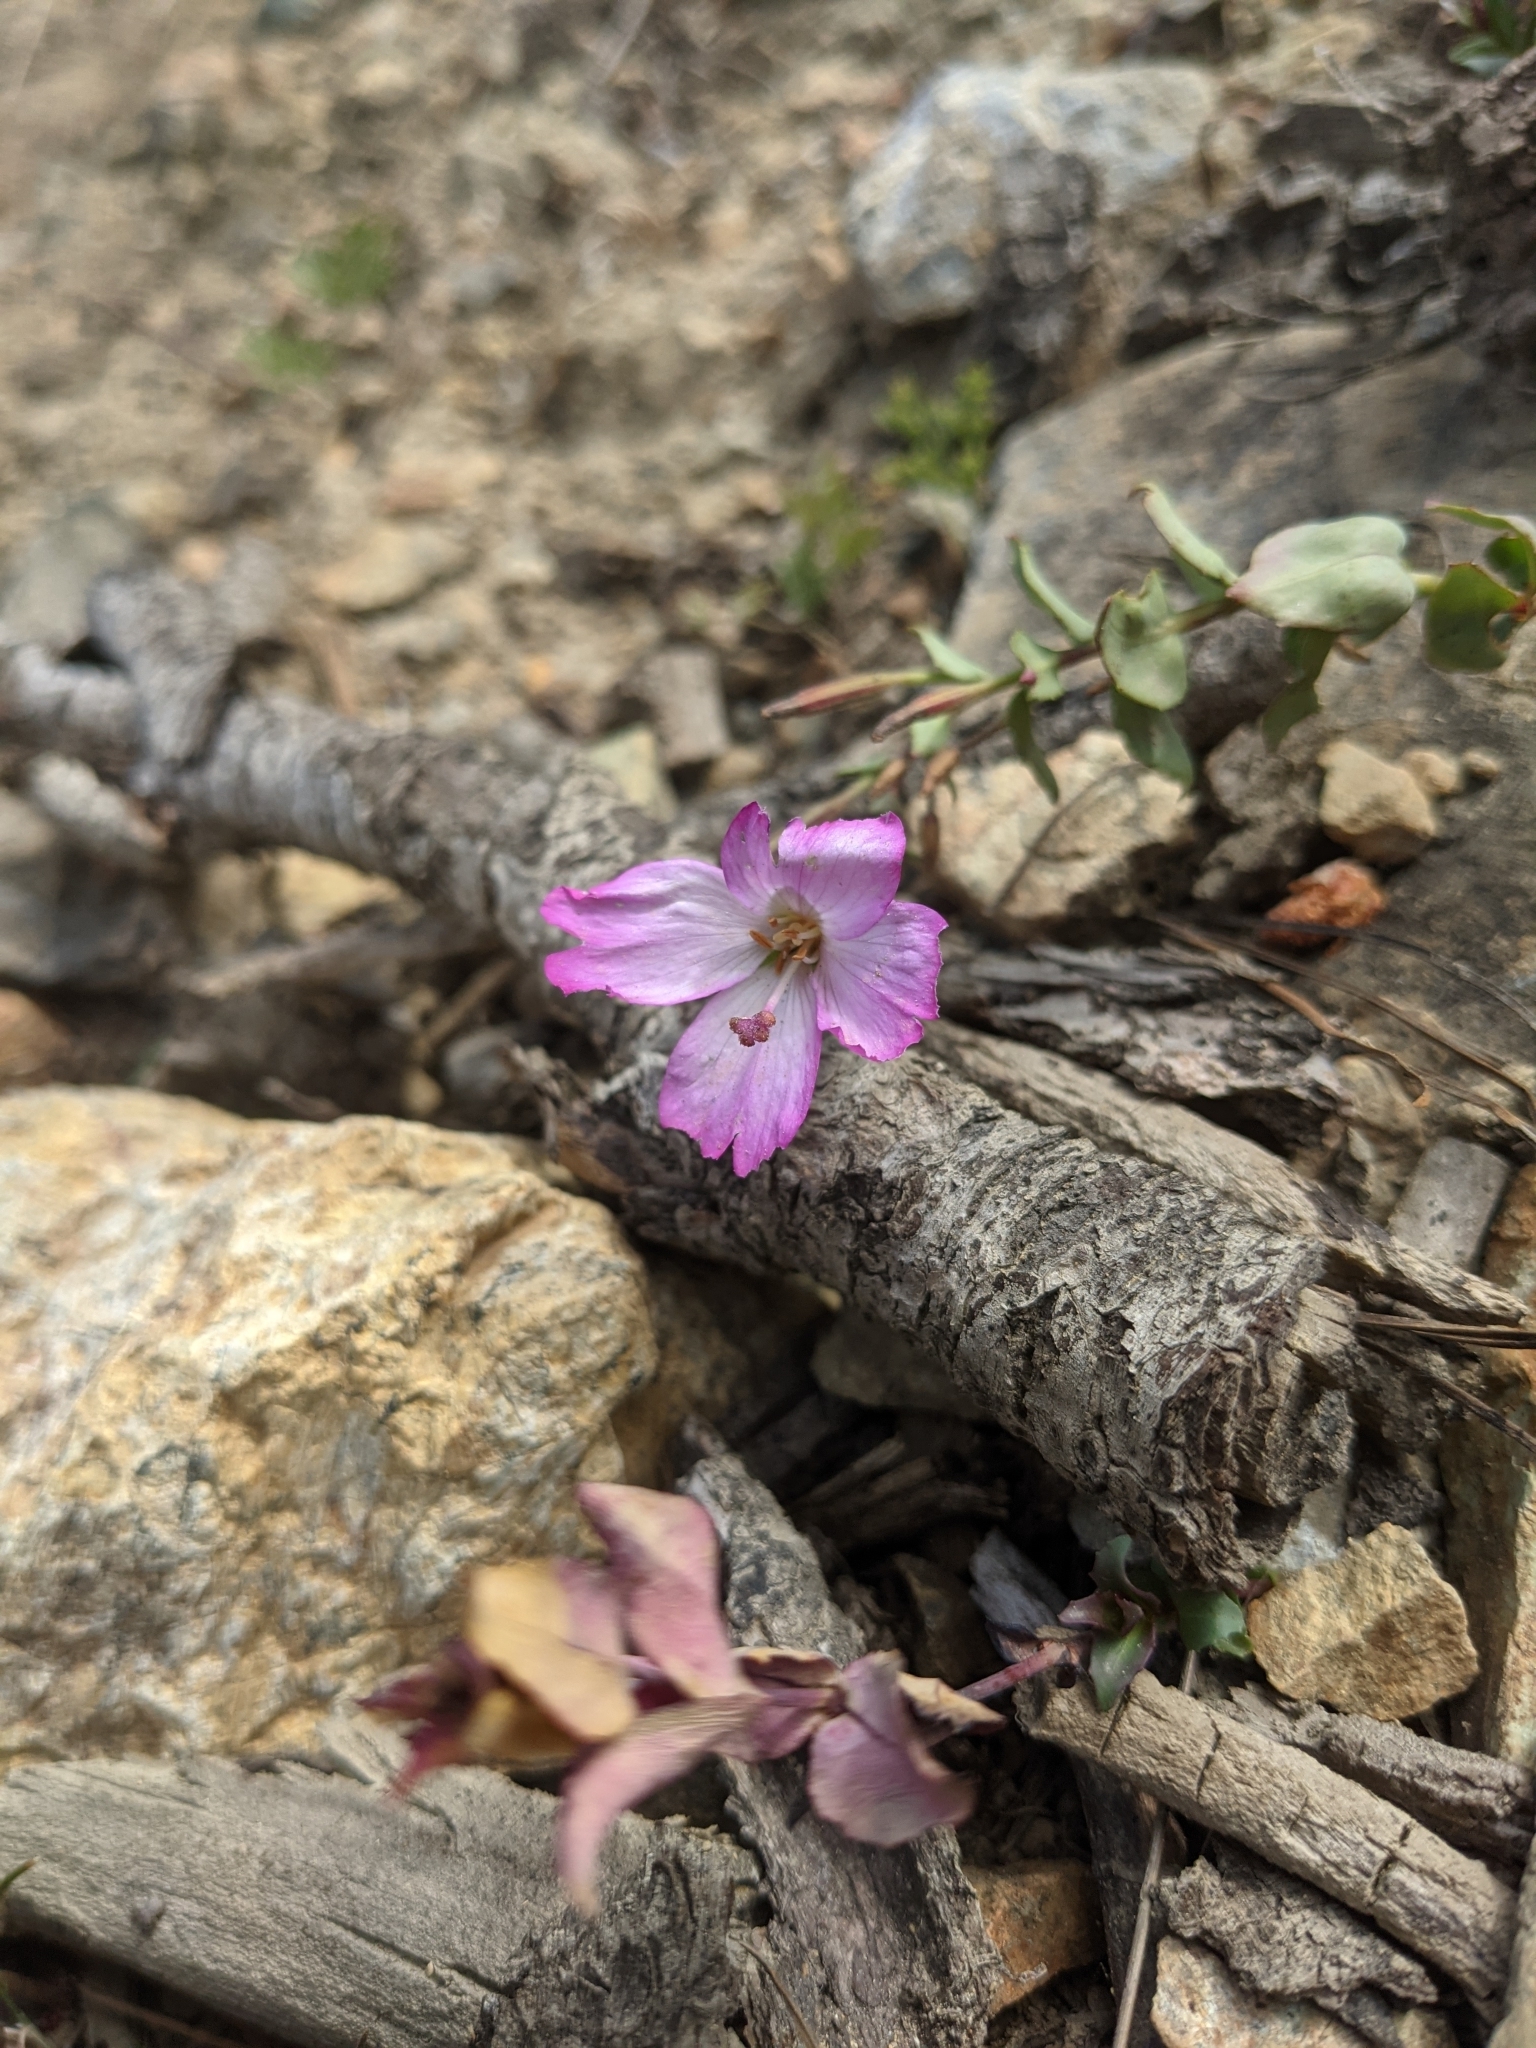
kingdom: Plantae
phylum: Tracheophyta
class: Magnoliopsida
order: Myrtales
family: Onagraceae
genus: Epilobium
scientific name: Epilobium siskiyouense
